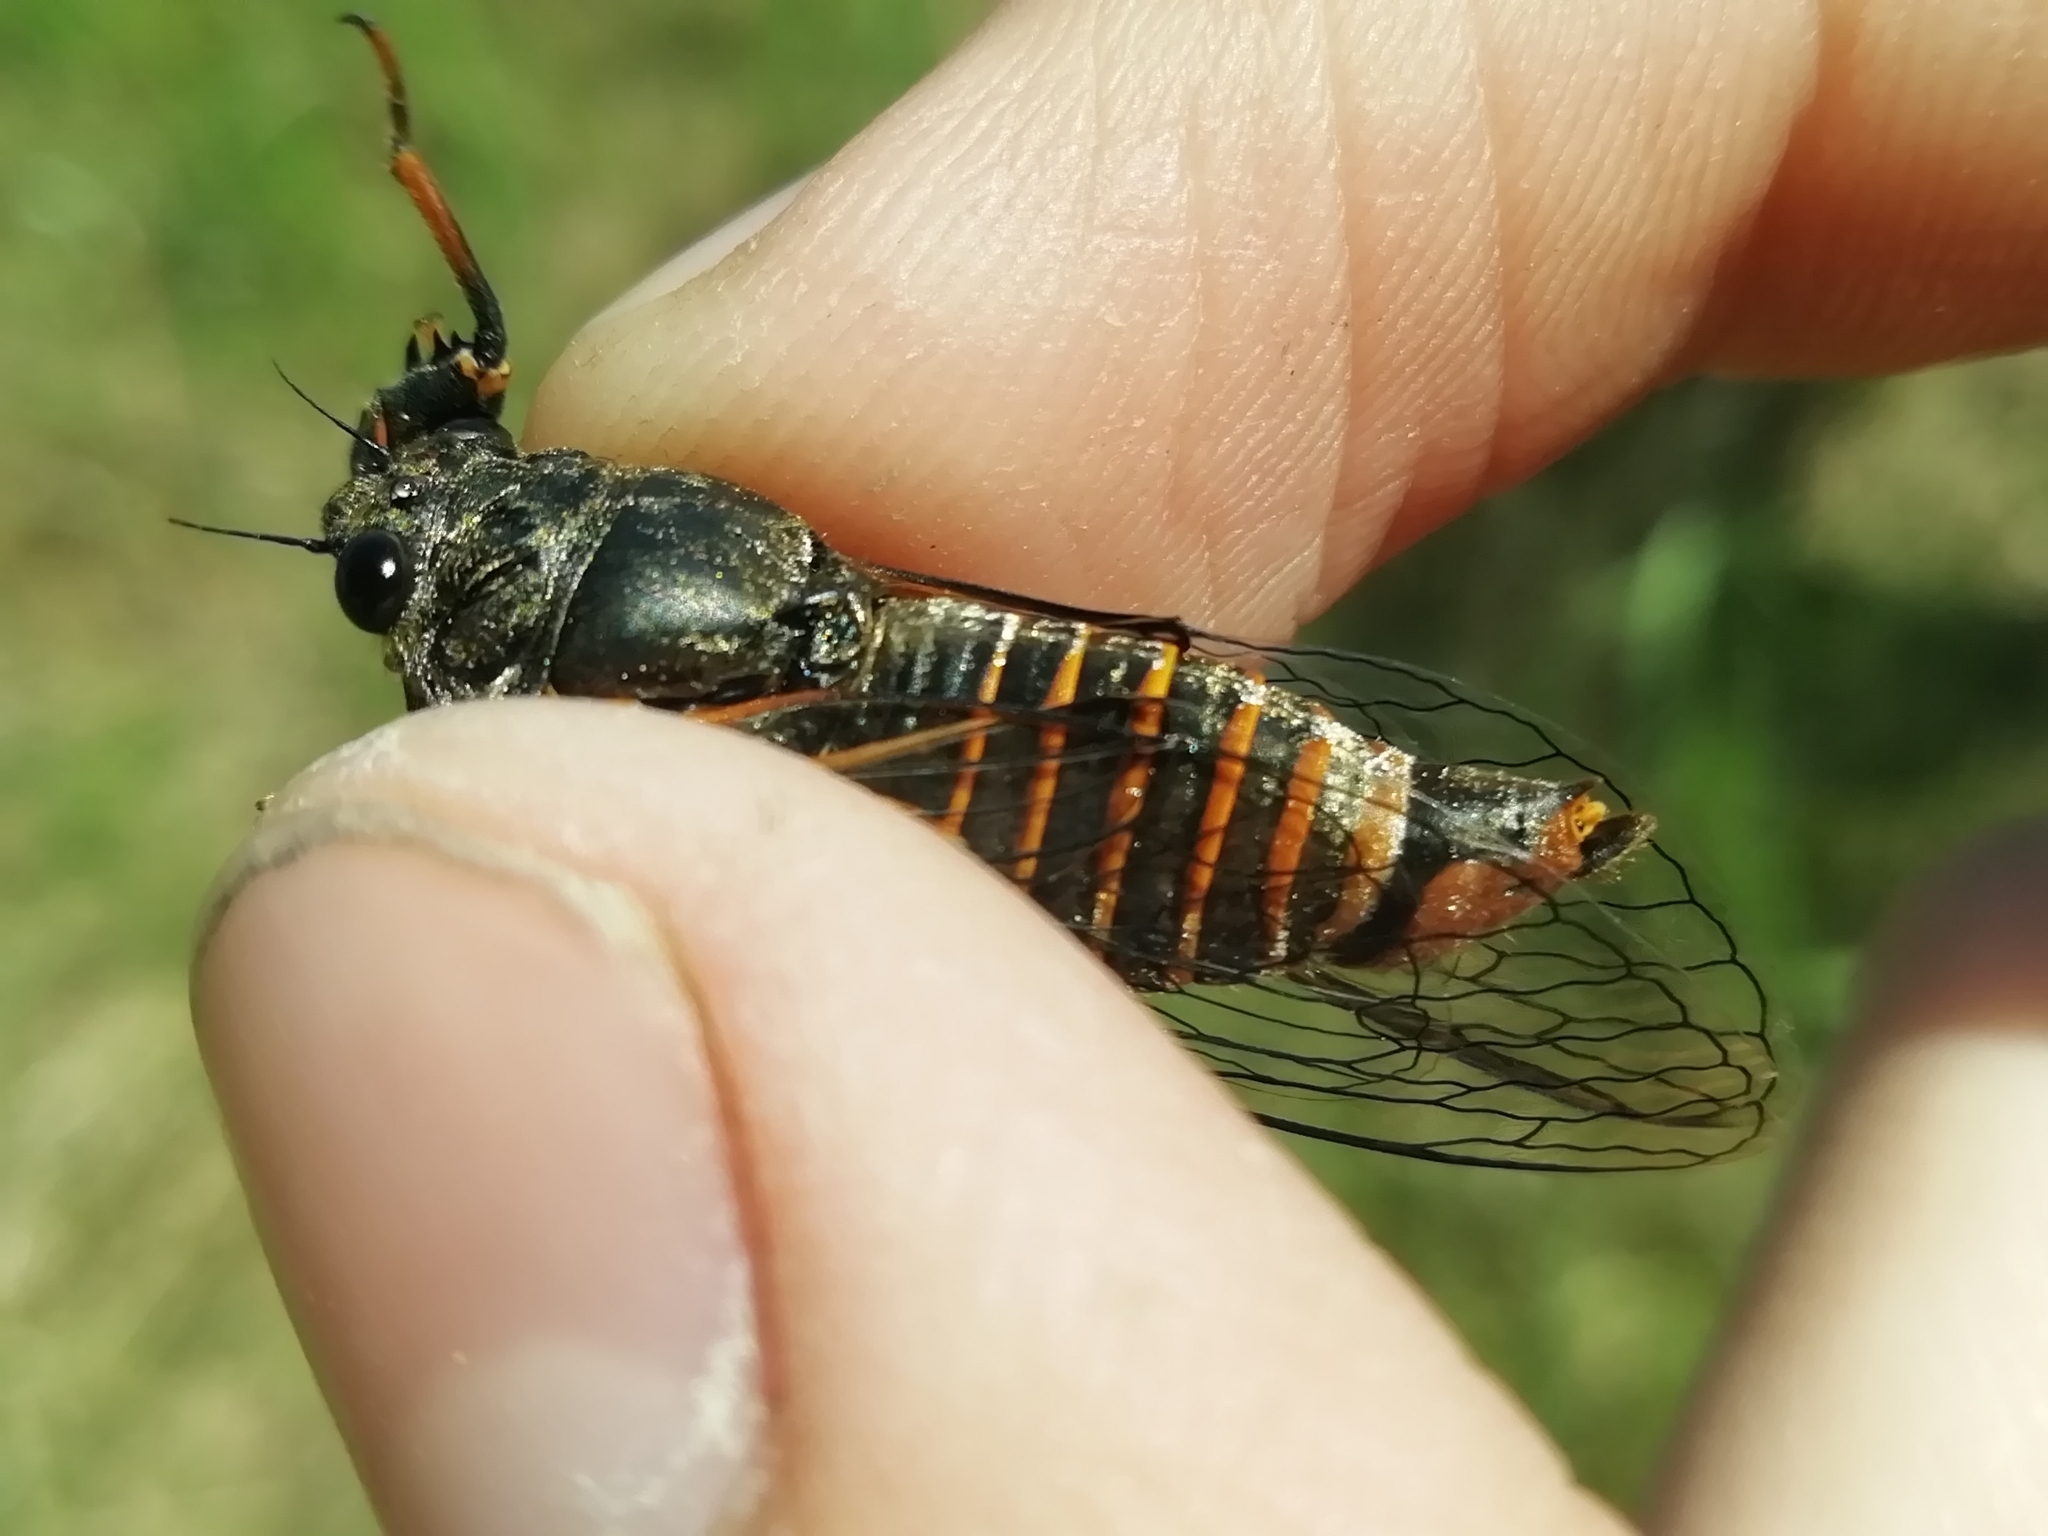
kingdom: Animalia
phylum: Arthropoda
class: Insecta
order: Hemiptera
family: Cicadidae
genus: Cicadetta
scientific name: Cicadetta montana
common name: New forest cicada
